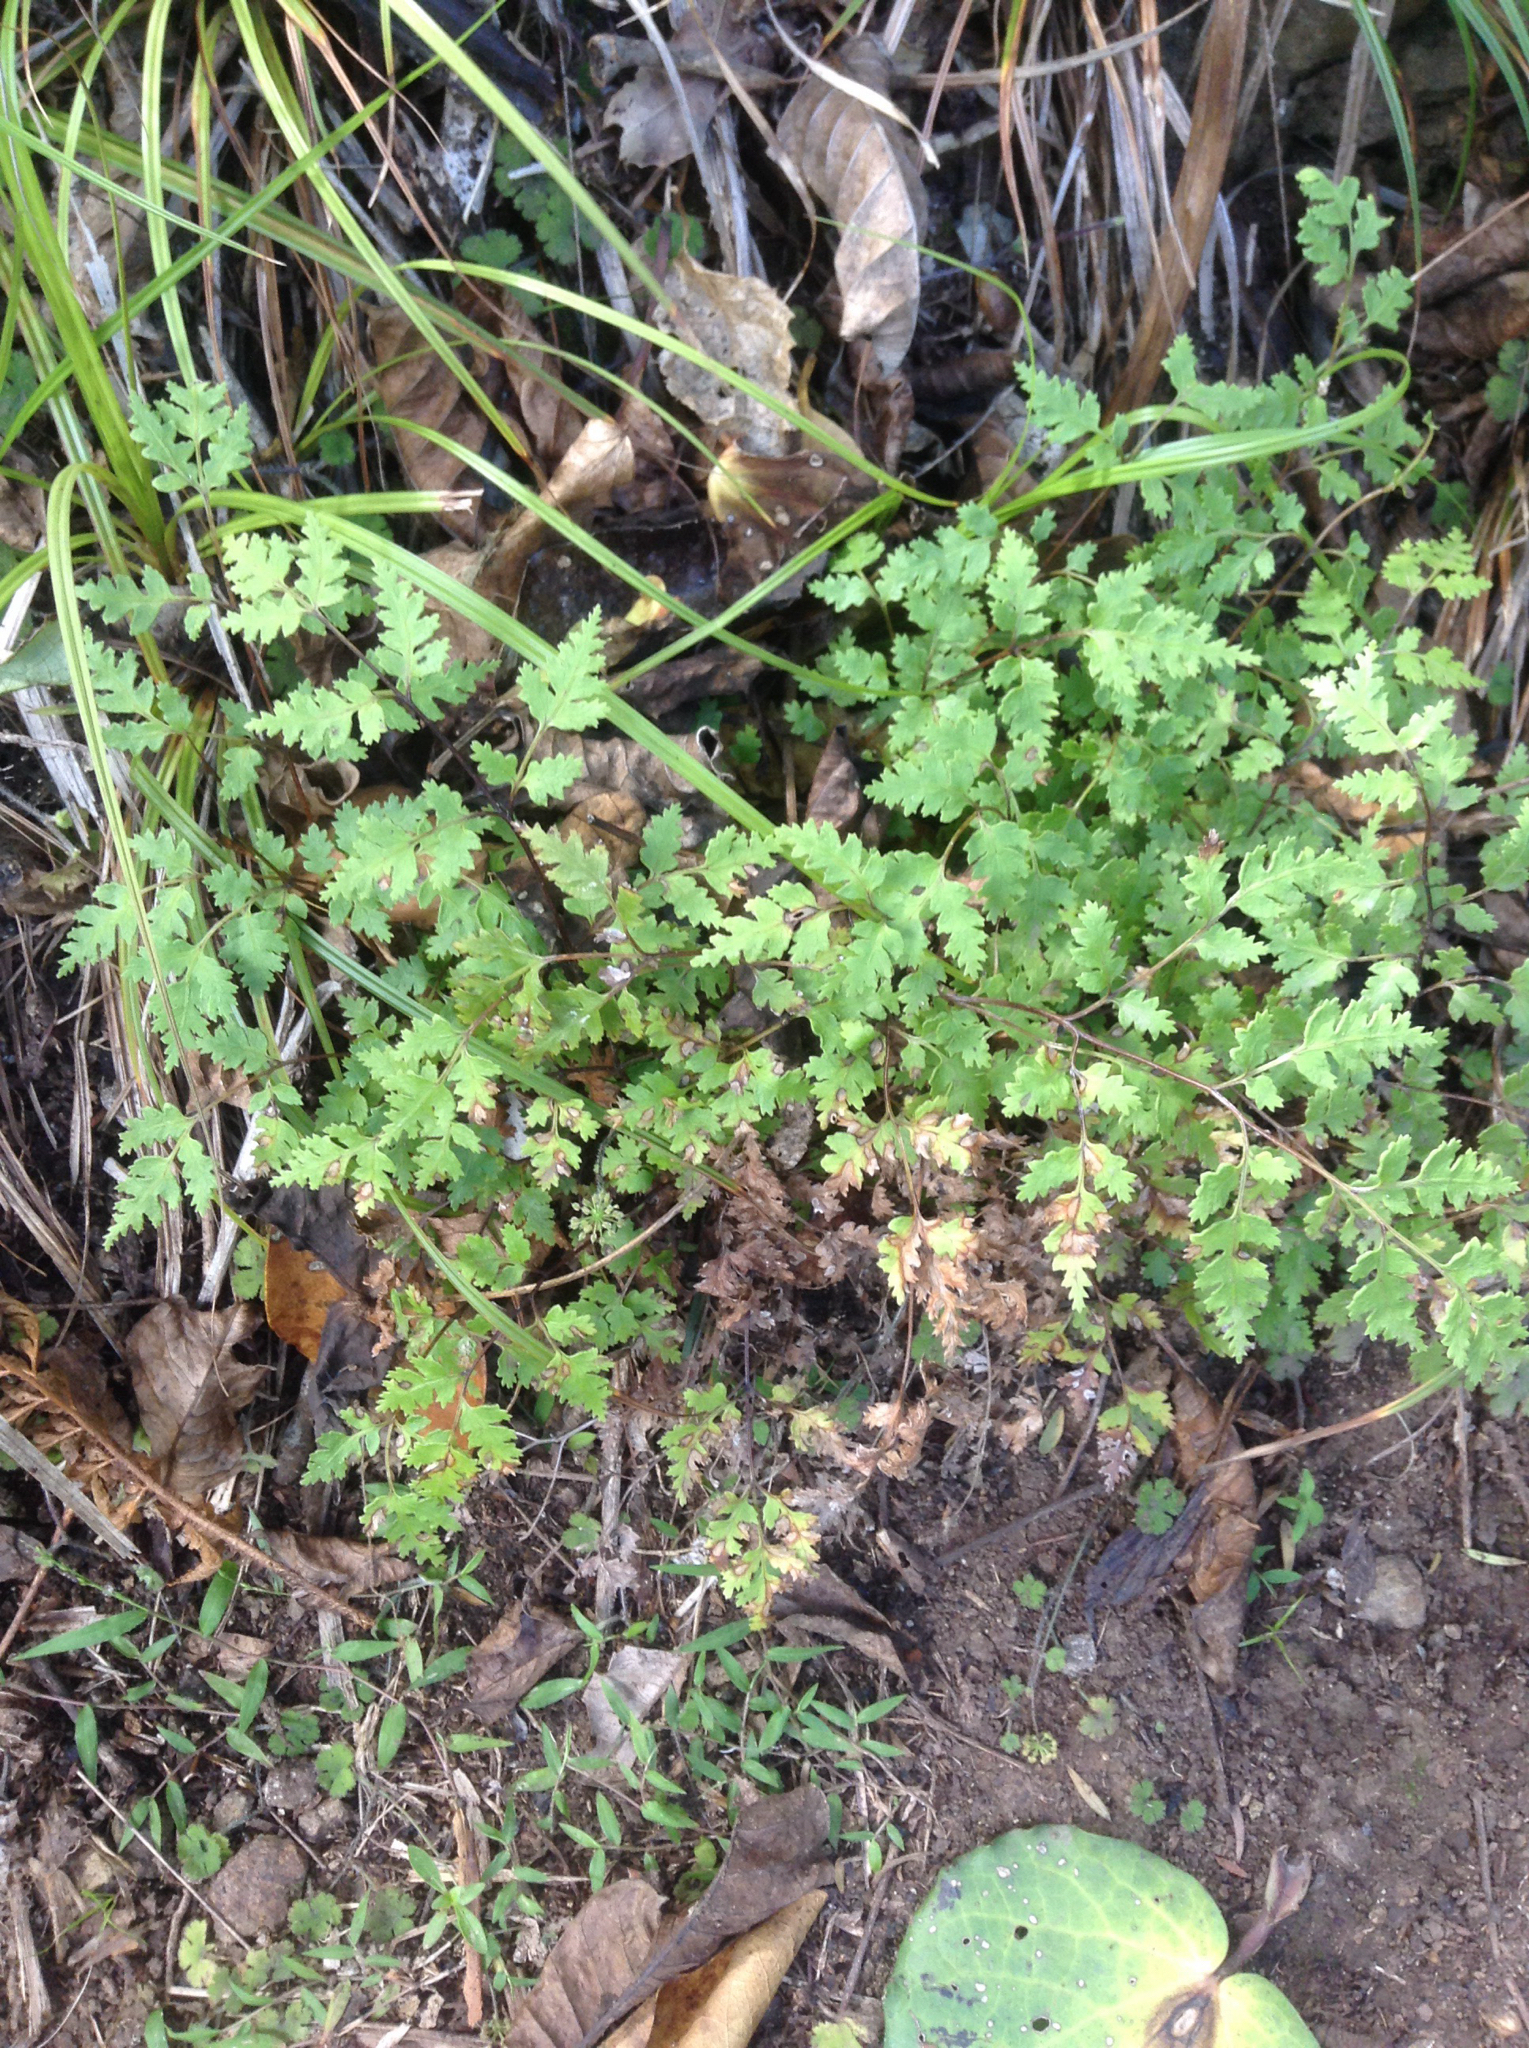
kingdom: Plantae
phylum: Tracheophyta
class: Polypodiopsida
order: Polypodiales
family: Pteridaceae
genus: Pteris
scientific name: Pteris saxatilis
